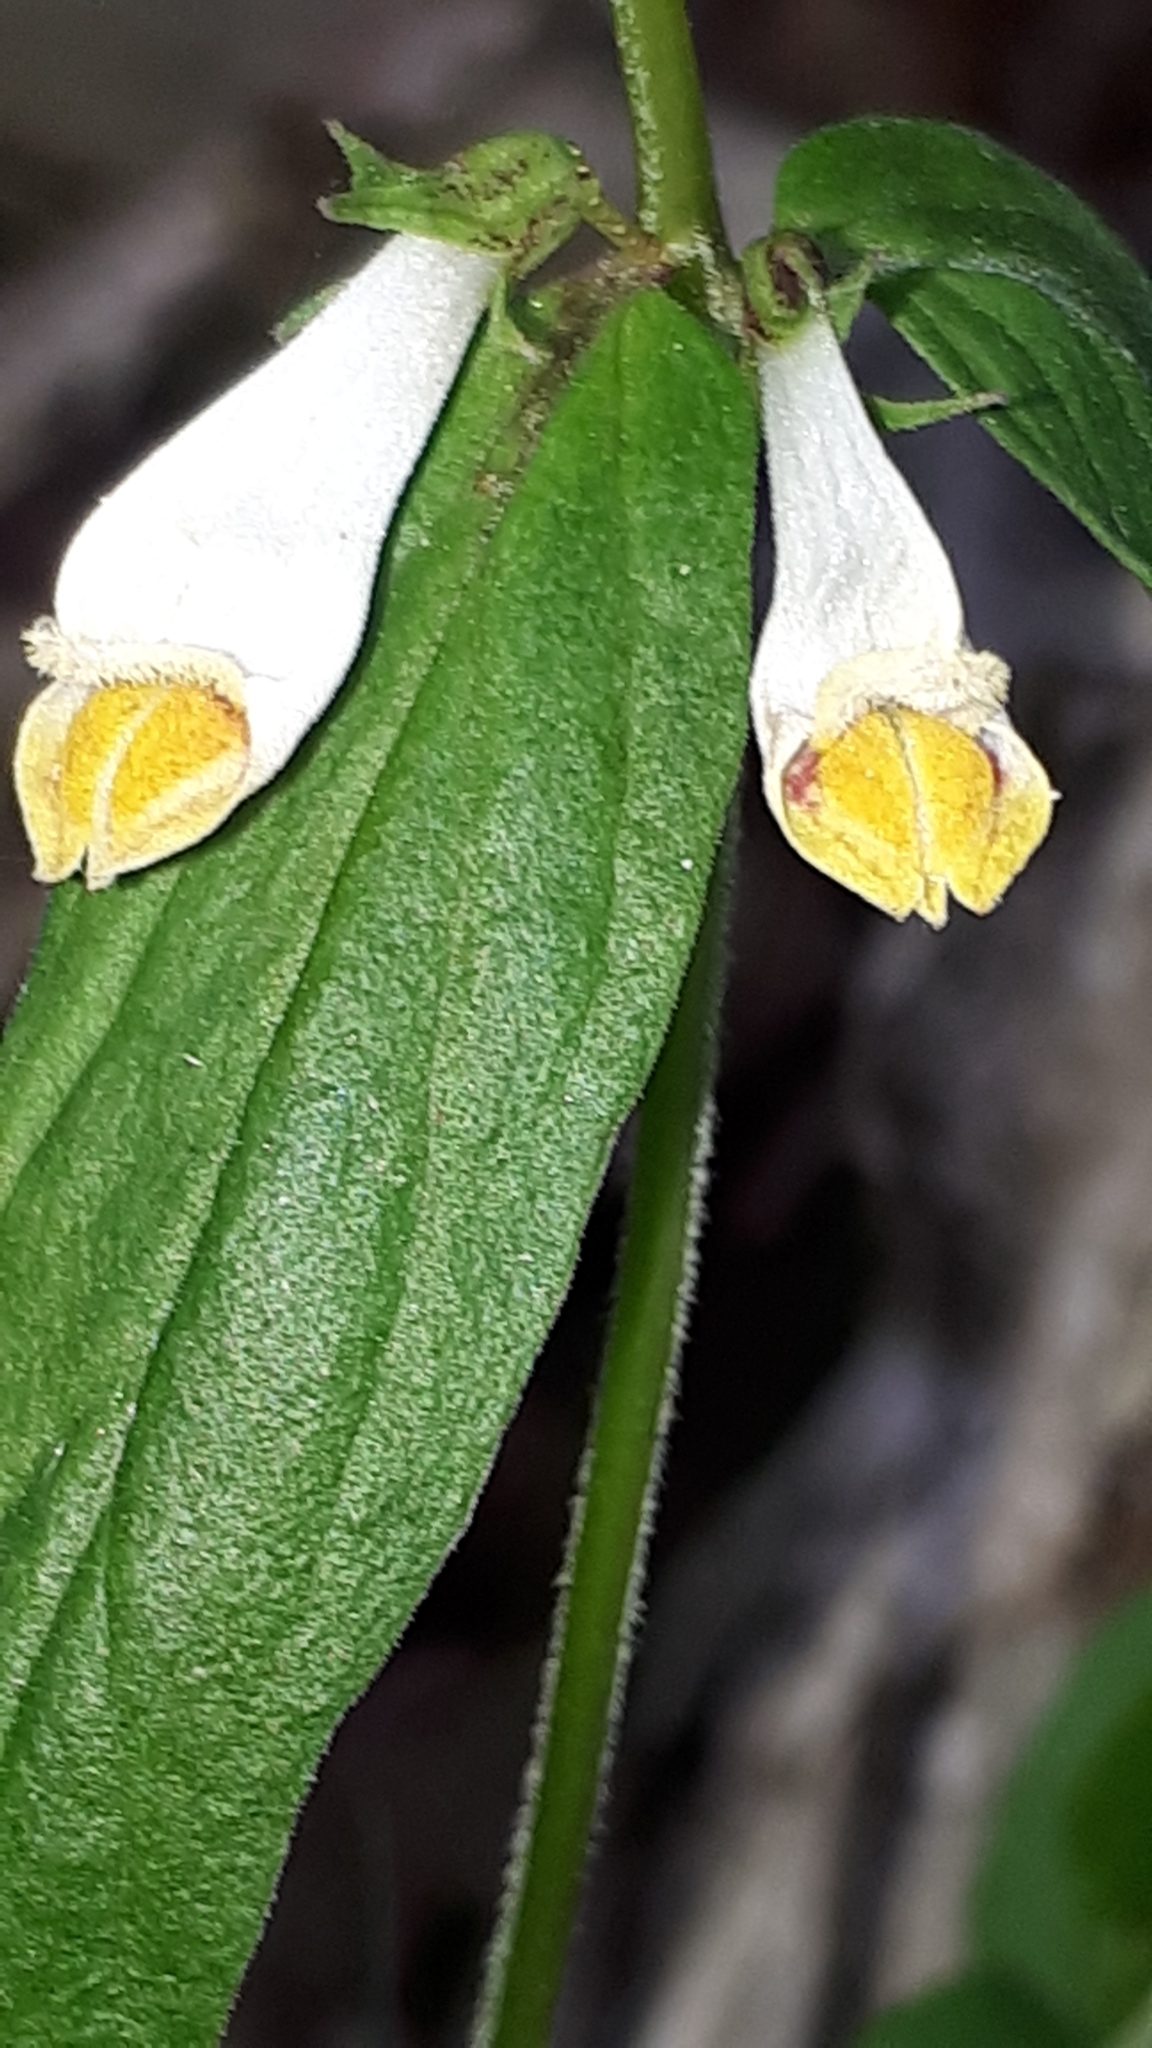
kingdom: Plantae
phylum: Tracheophyta
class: Magnoliopsida
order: Lamiales
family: Orobanchaceae
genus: Melampyrum
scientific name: Melampyrum pratense
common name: Common cow-wheat
